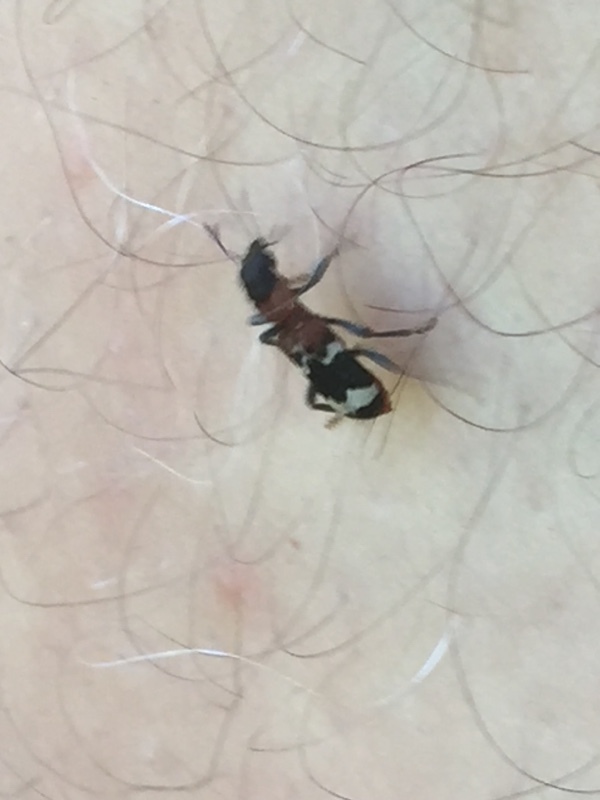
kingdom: Animalia
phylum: Arthropoda
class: Insecta
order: Coleoptera
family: Cleridae
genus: Thanasimus
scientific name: Thanasimus formicarius
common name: Ant beetle
